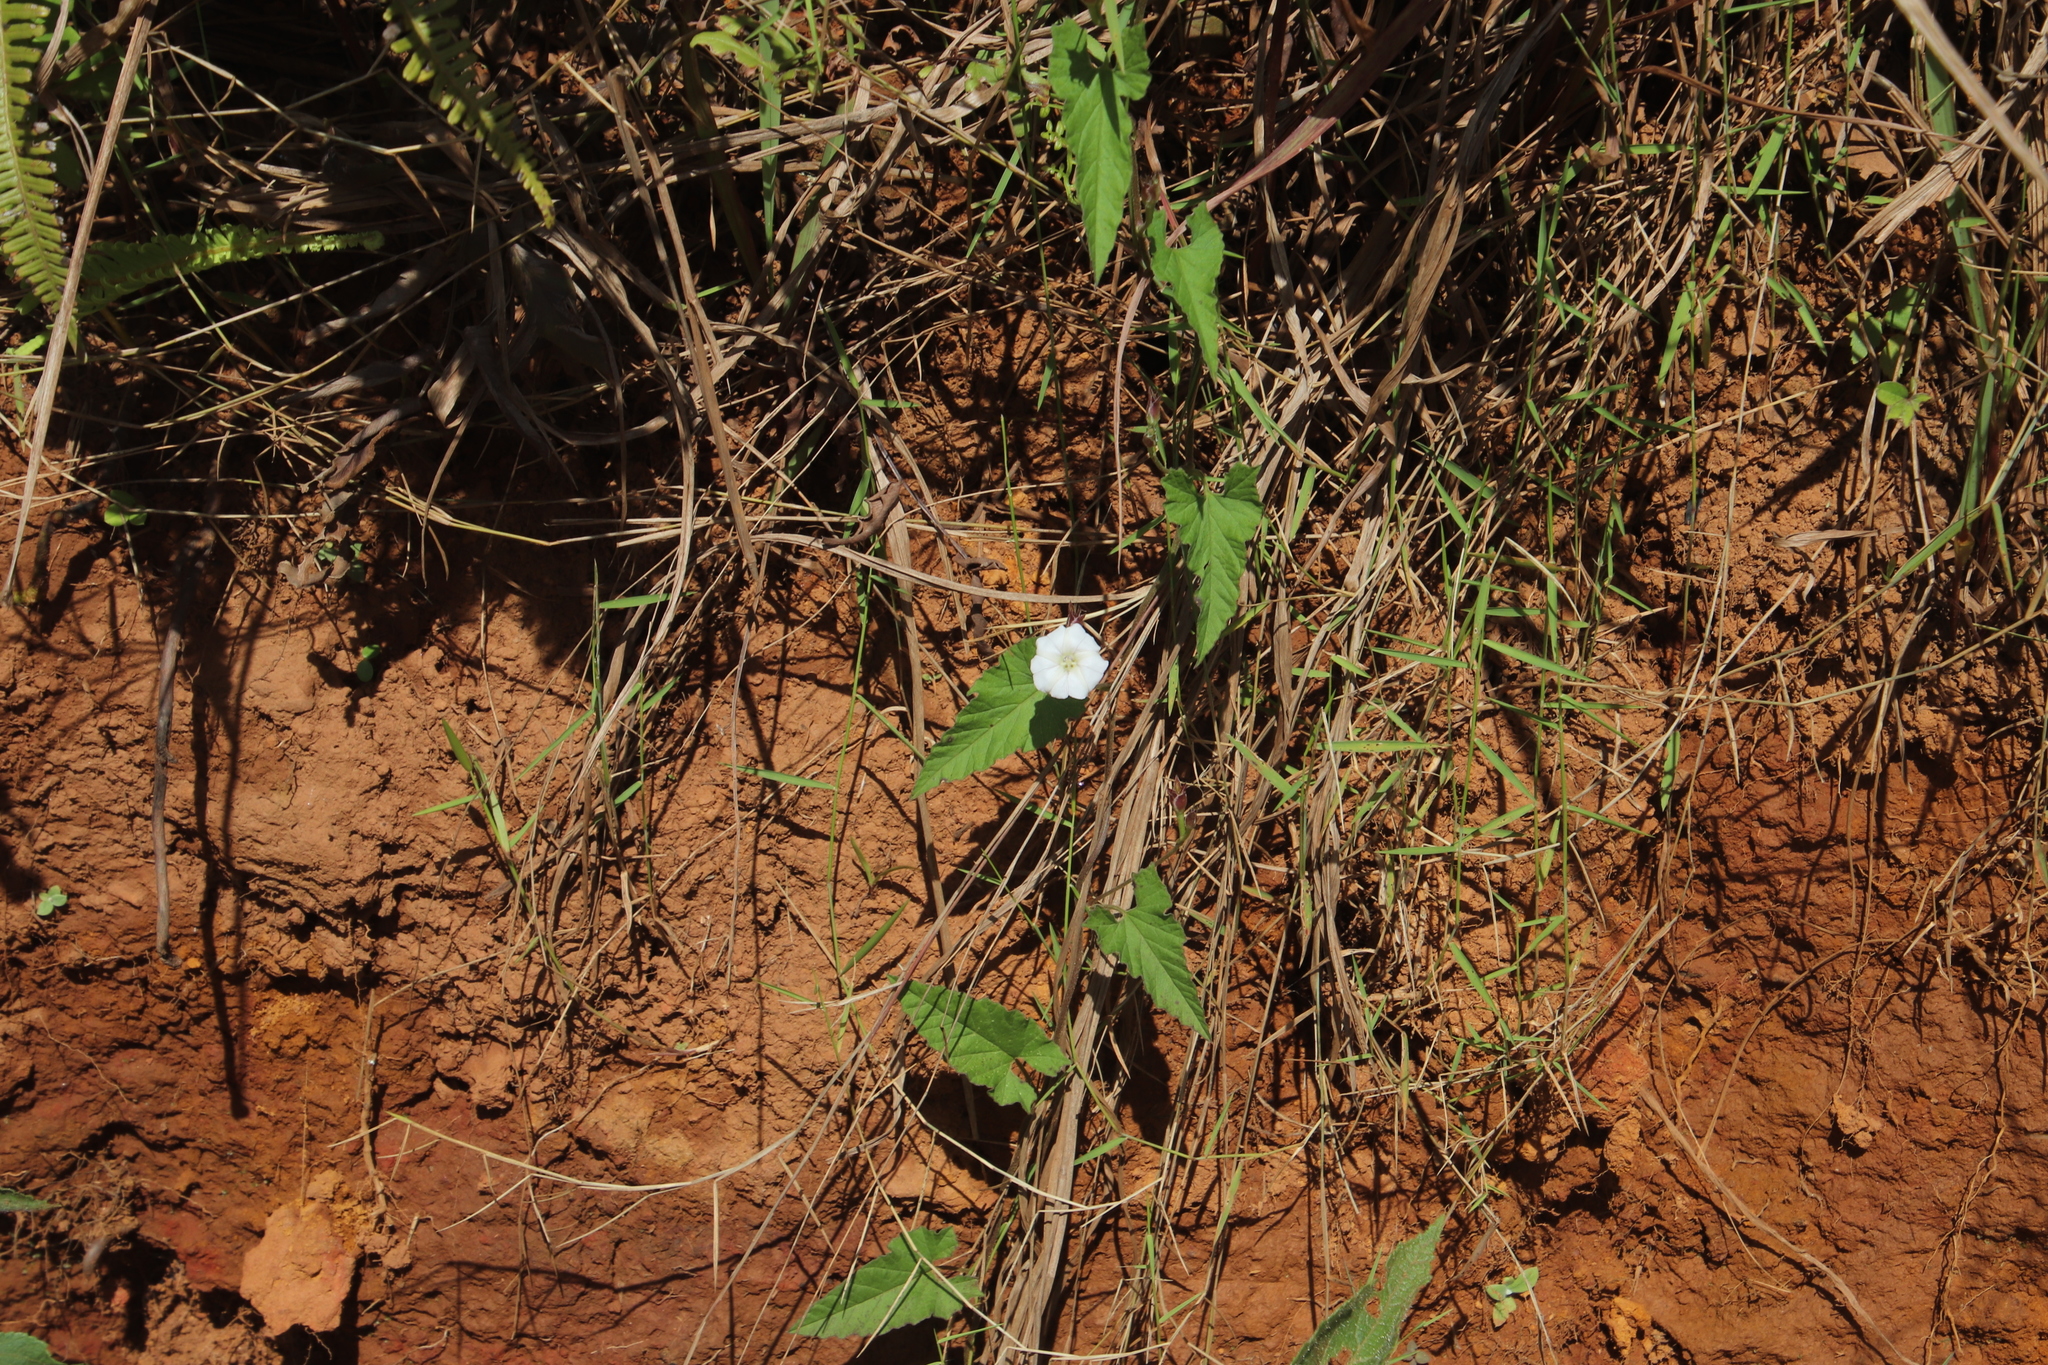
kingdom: Plantae
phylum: Tracheophyta
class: Magnoliopsida
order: Solanales
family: Convolvulaceae
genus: Convolvulus
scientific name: Convolvulus sagittatus
